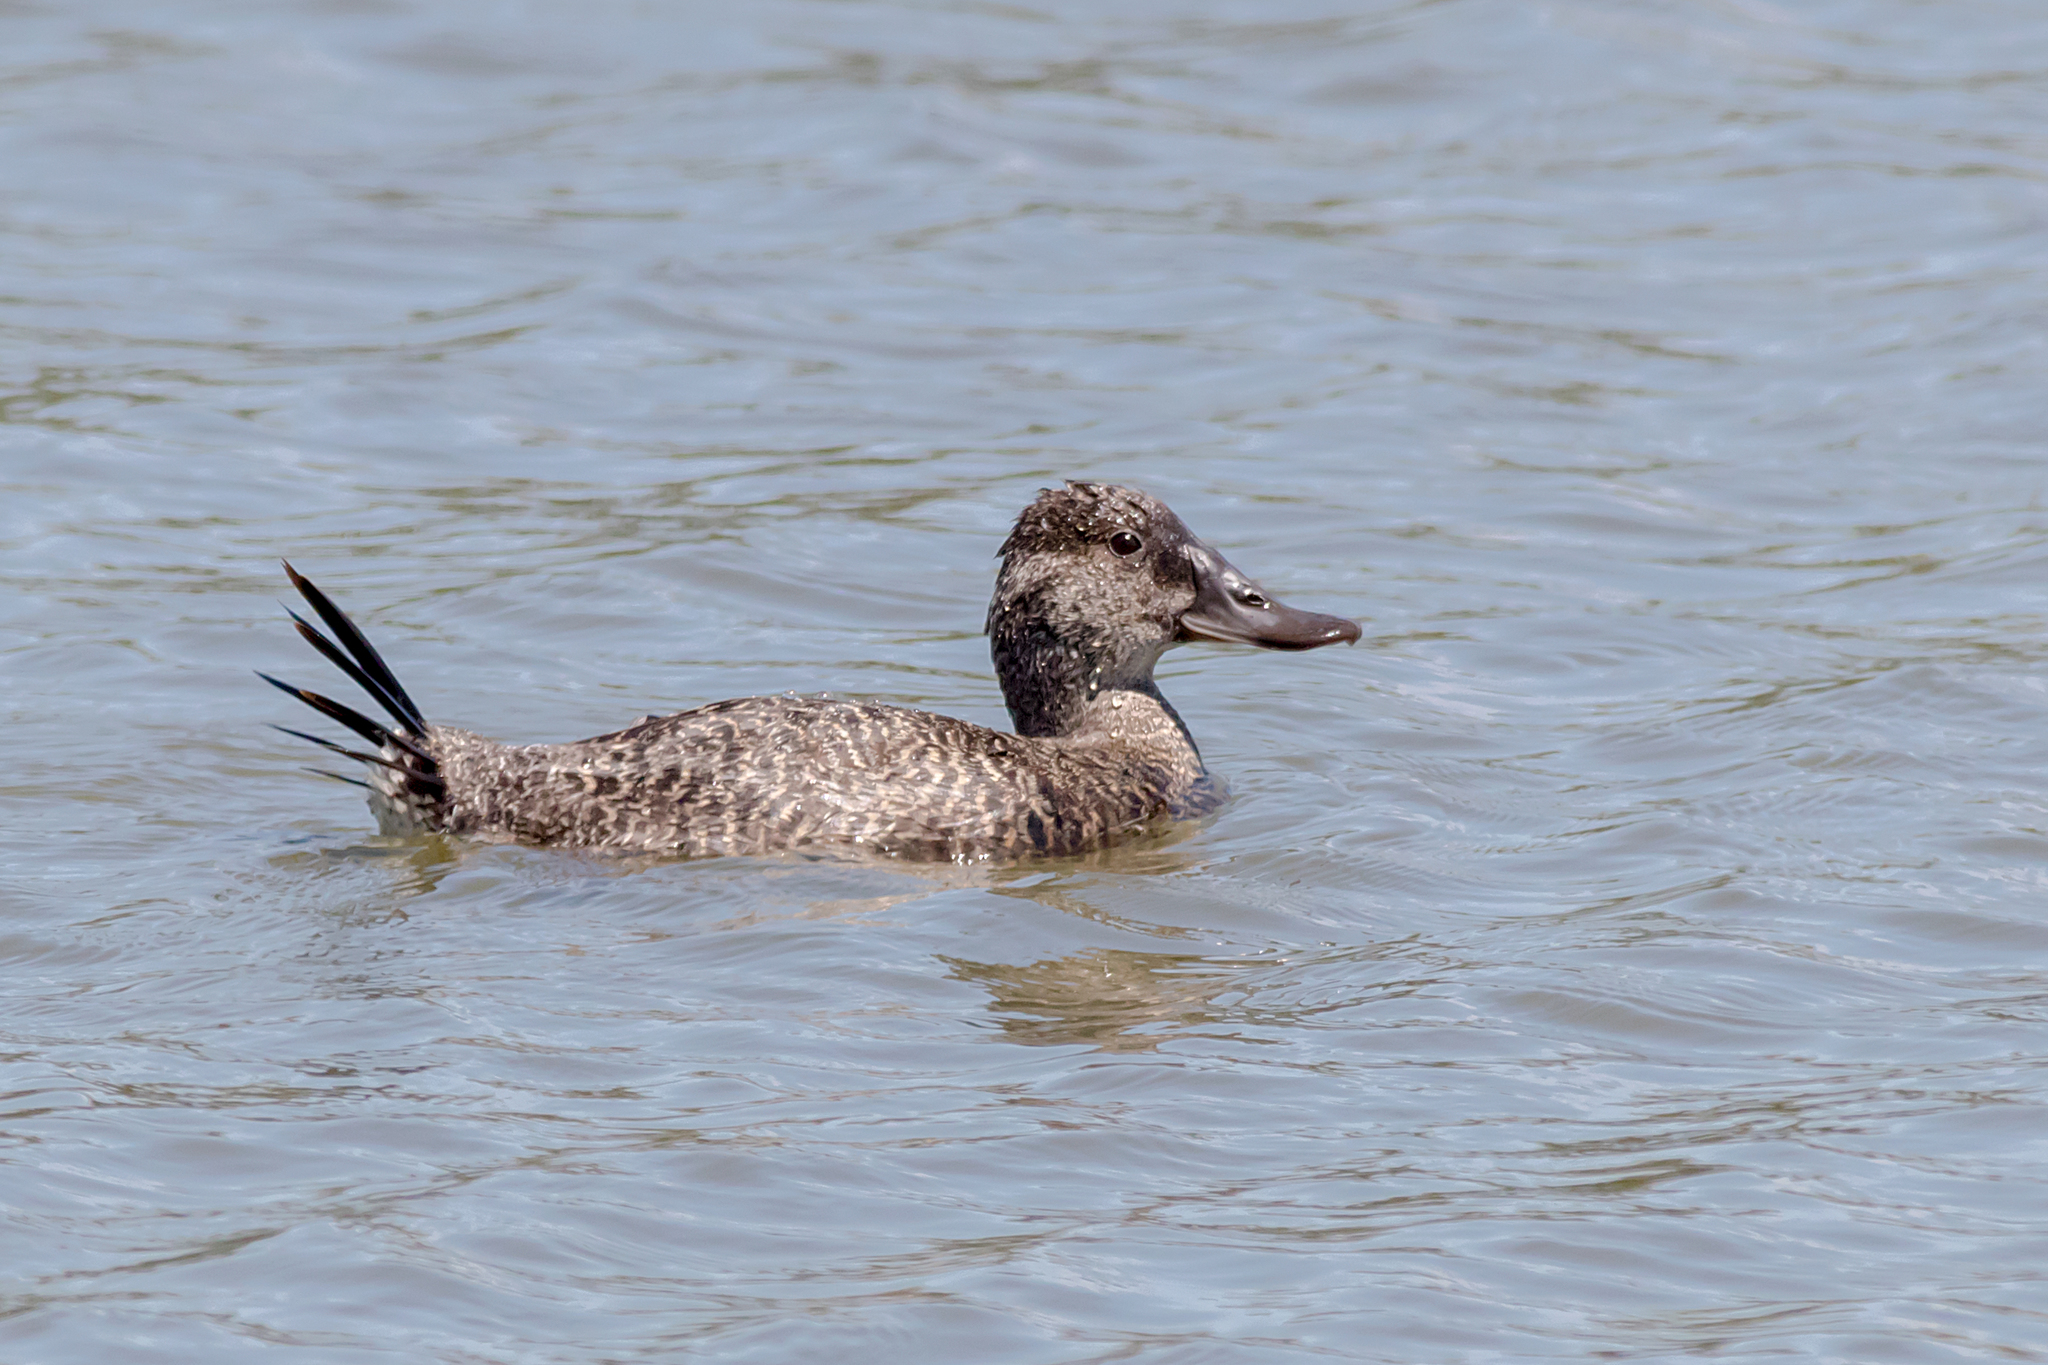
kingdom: Animalia
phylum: Chordata
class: Aves
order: Anseriformes
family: Anatidae
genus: Oxyura
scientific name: Oxyura australis
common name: Blue-billed duck
